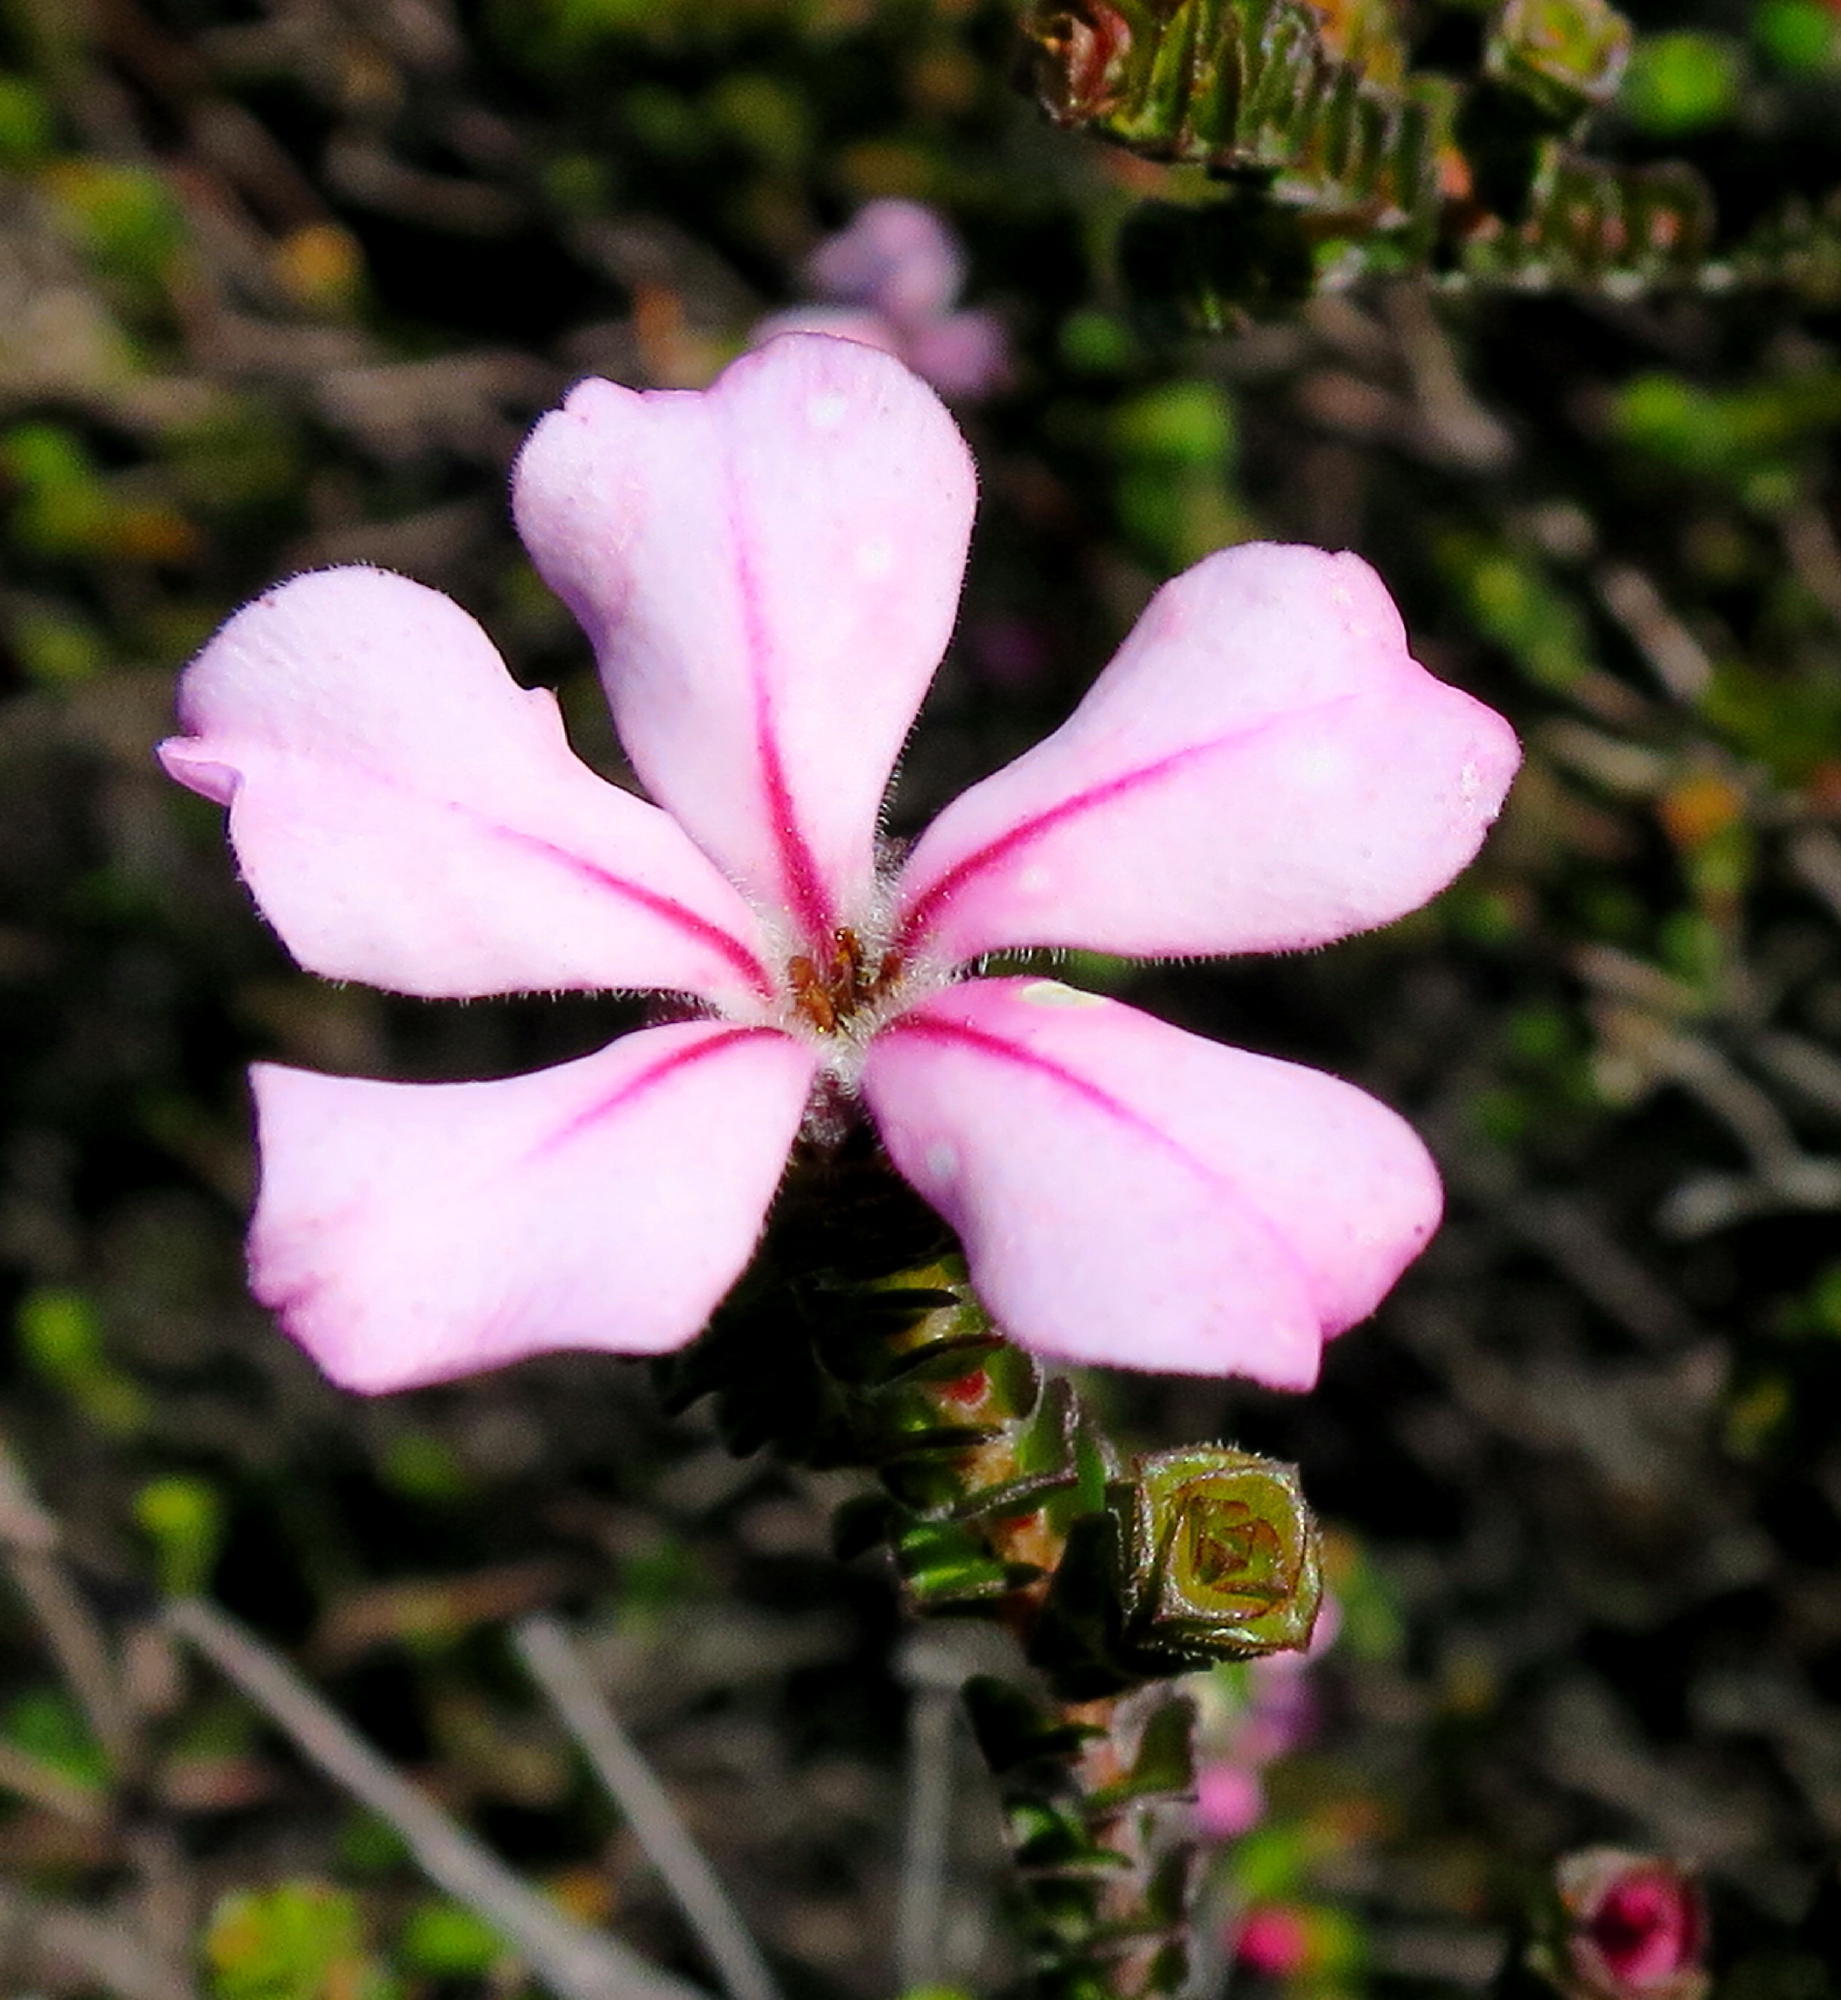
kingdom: Plantae
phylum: Tracheophyta
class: Magnoliopsida
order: Sapindales
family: Rutaceae
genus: Acmadenia
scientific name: Acmadenia tetragona
